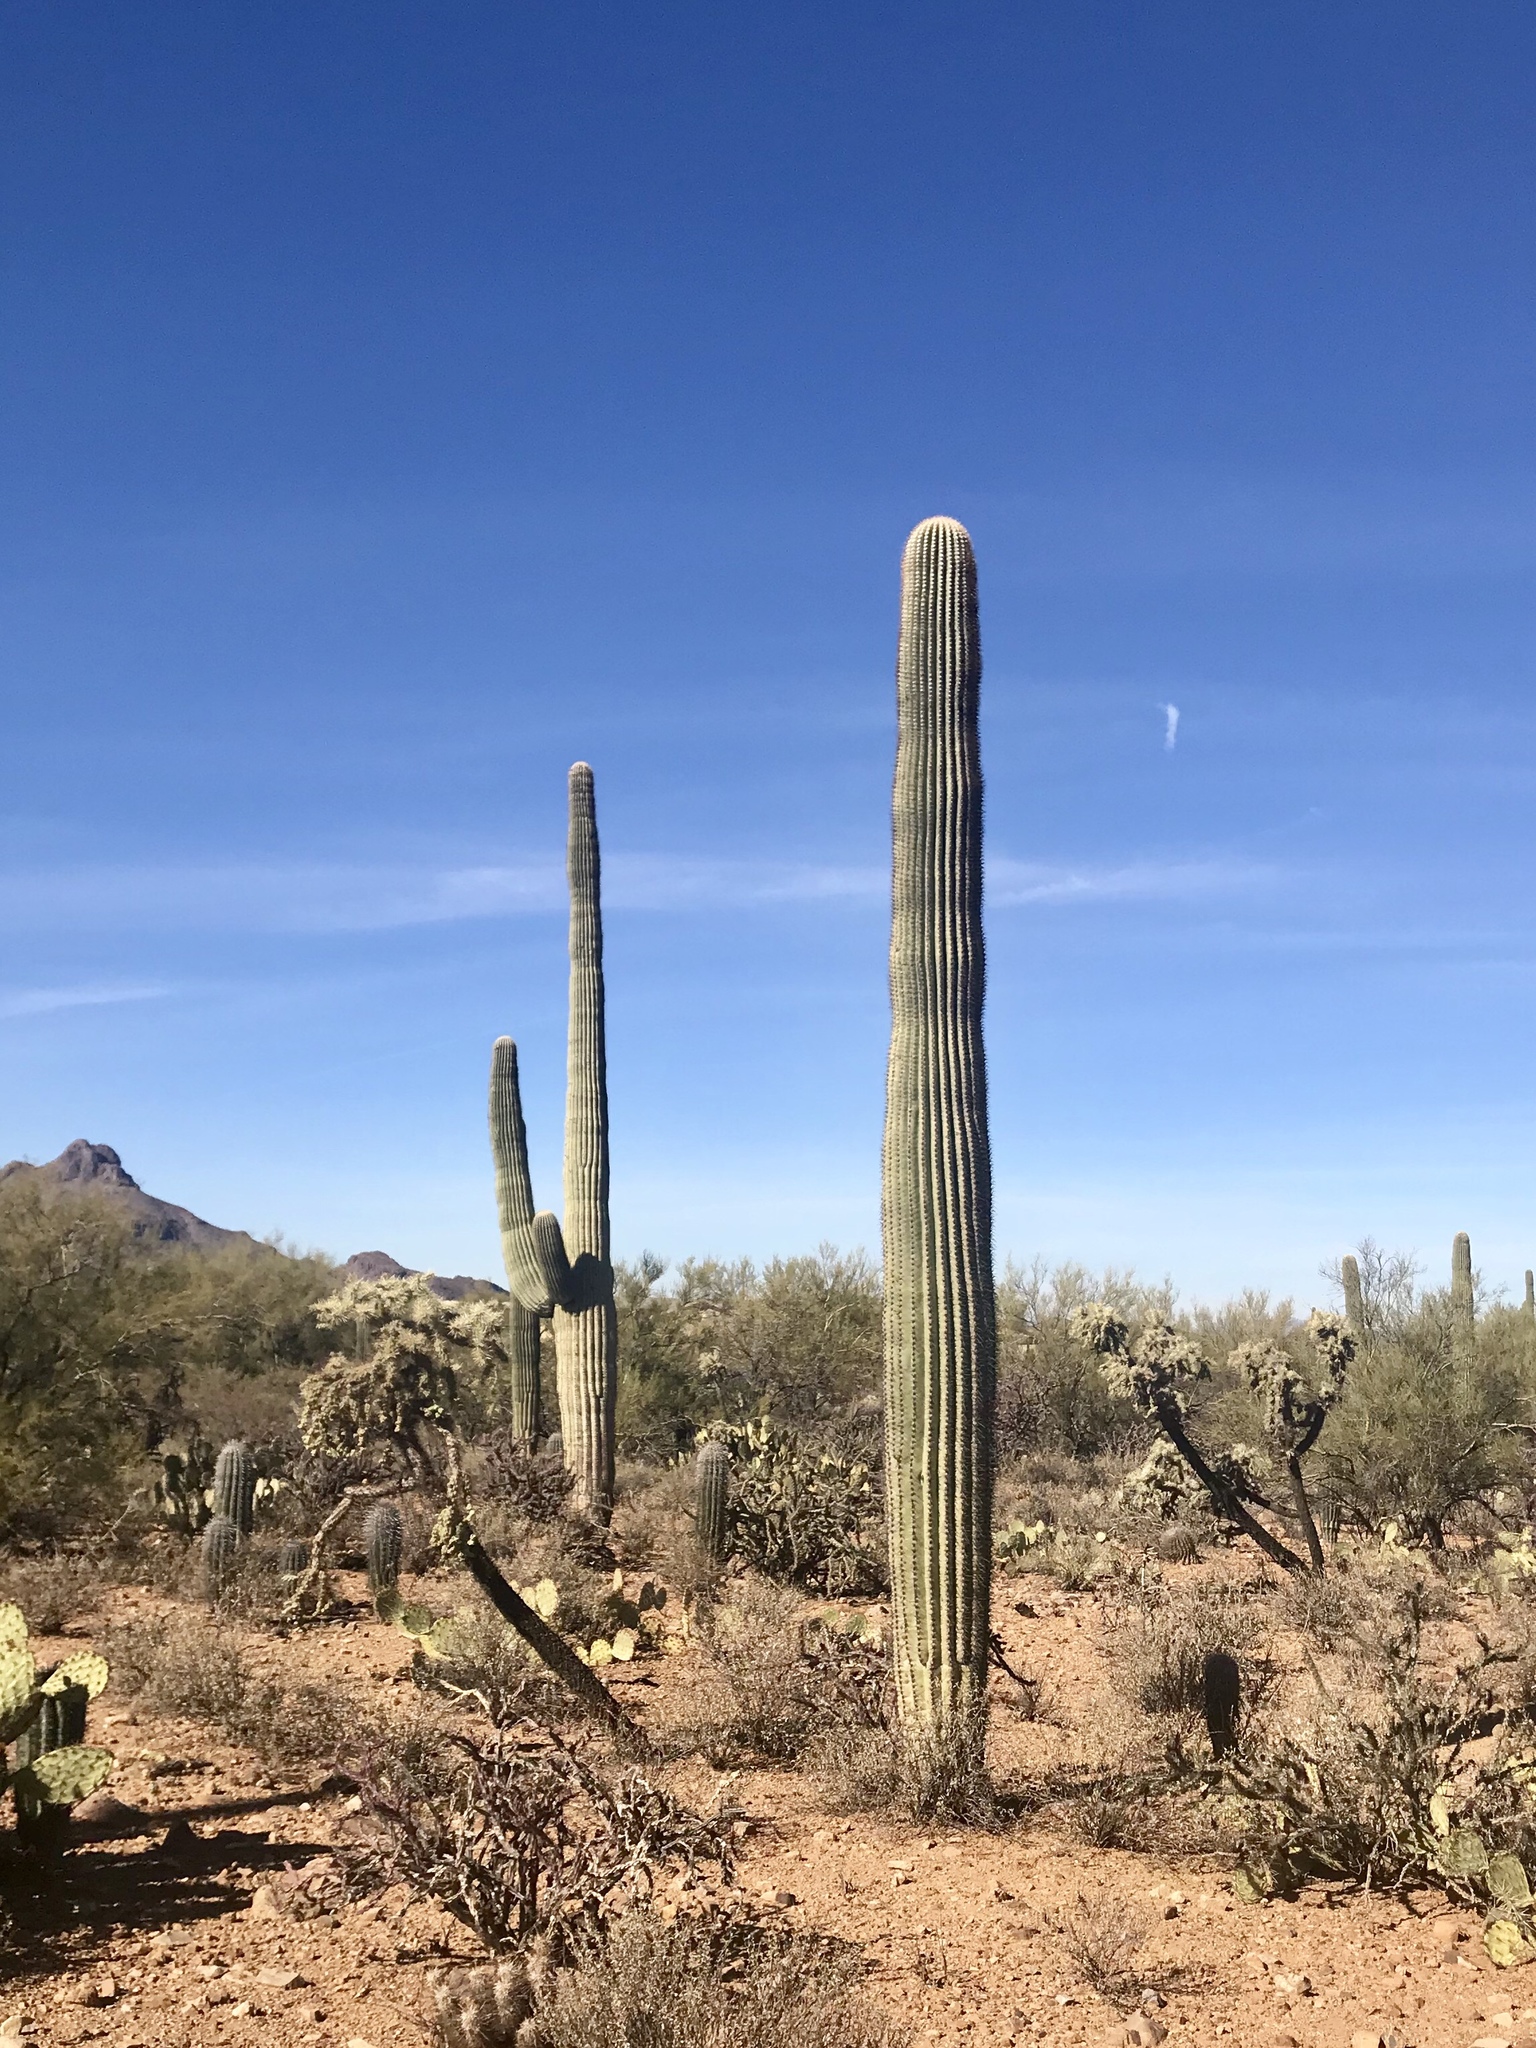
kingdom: Plantae
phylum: Tracheophyta
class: Magnoliopsida
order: Caryophyllales
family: Cactaceae
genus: Carnegiea
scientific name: Carnegiea gigantea
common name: Saguaro
